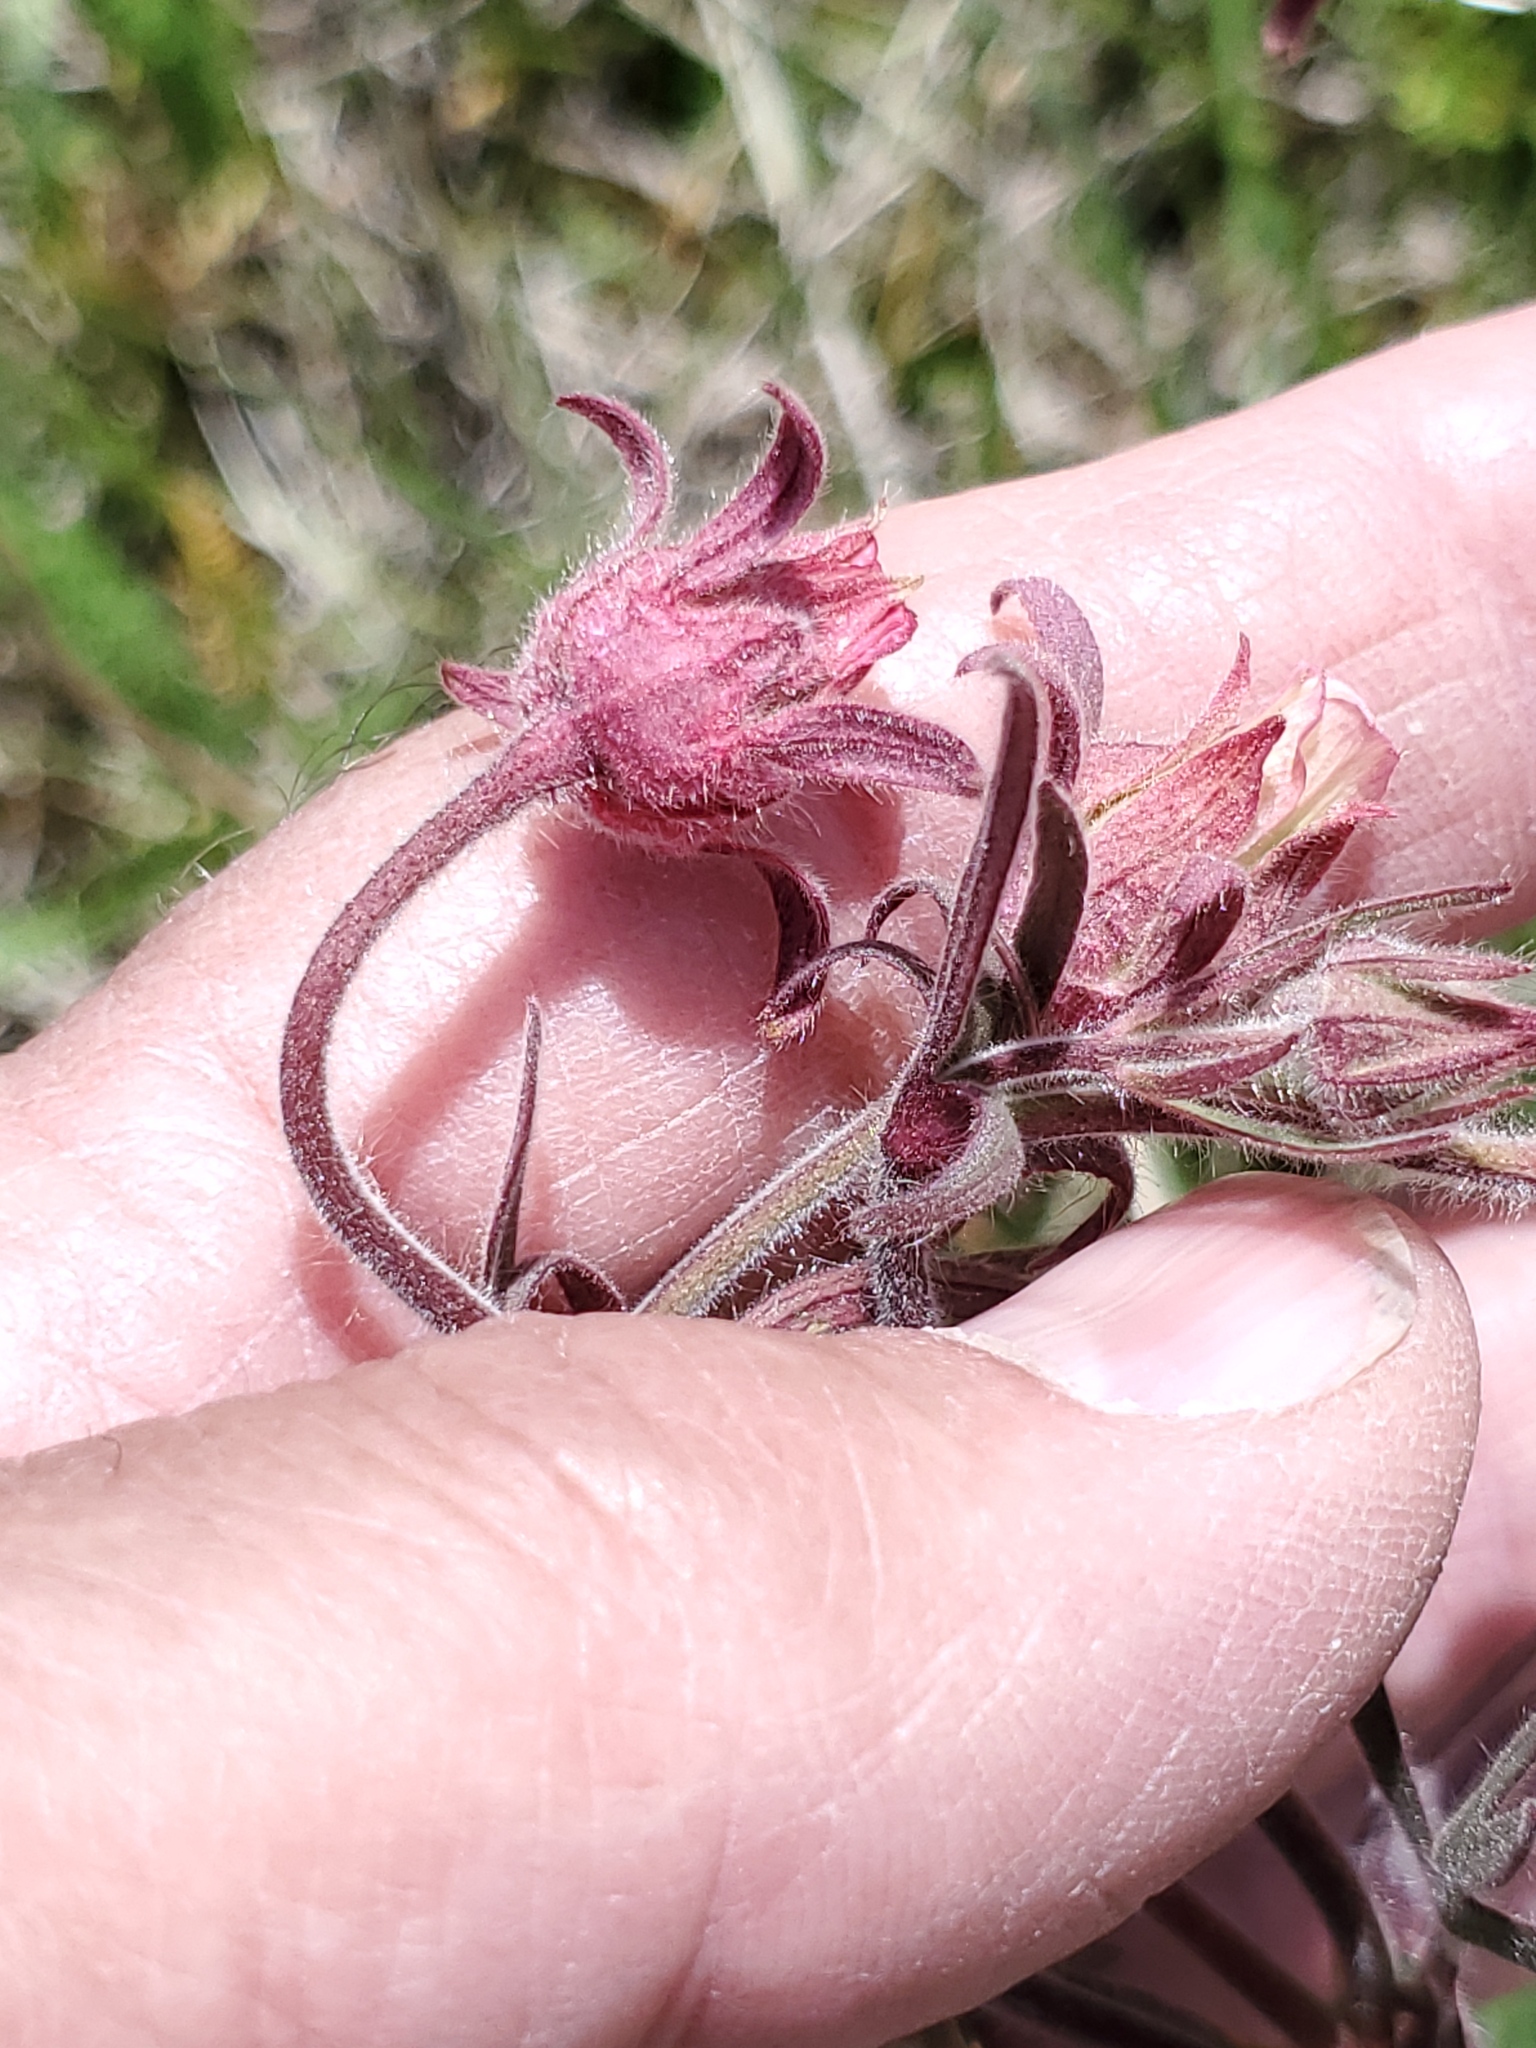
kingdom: Plantae
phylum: Tracheophyta
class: Magnoliopsida
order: Rosales
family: Rosaceae
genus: Geum
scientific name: Geum triflorum
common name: Old man's whiskers
